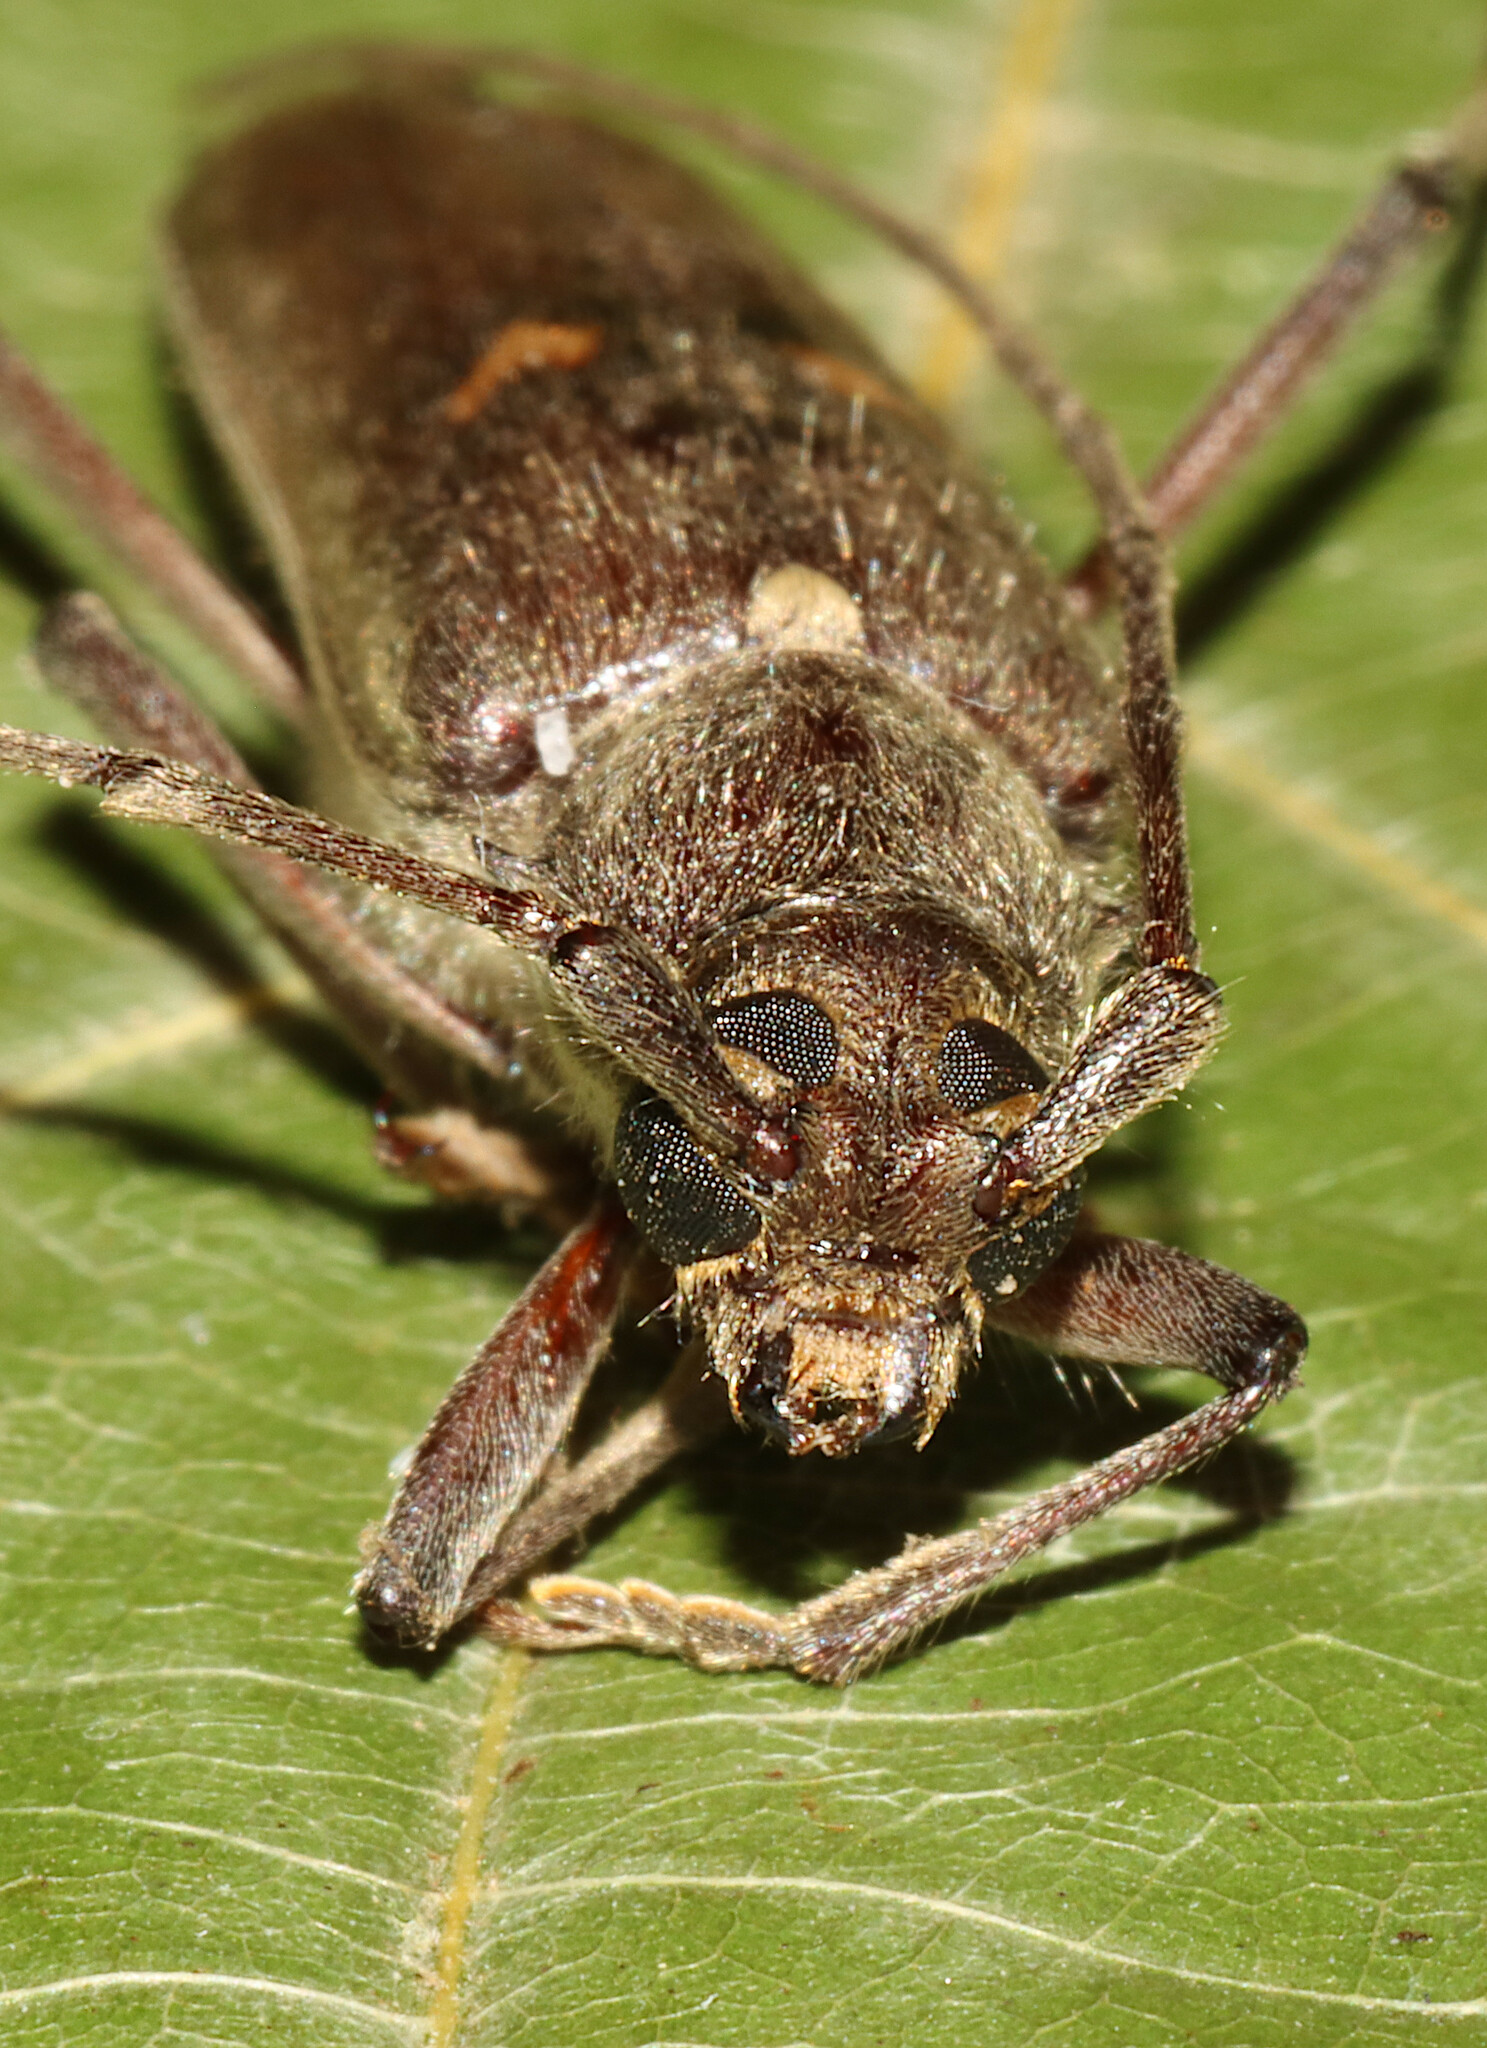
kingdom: Animalia
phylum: Arthropoda
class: Insecta
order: Coleoptera
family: Cerambycidae
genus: Knulliana
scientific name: Knulliana cincta
